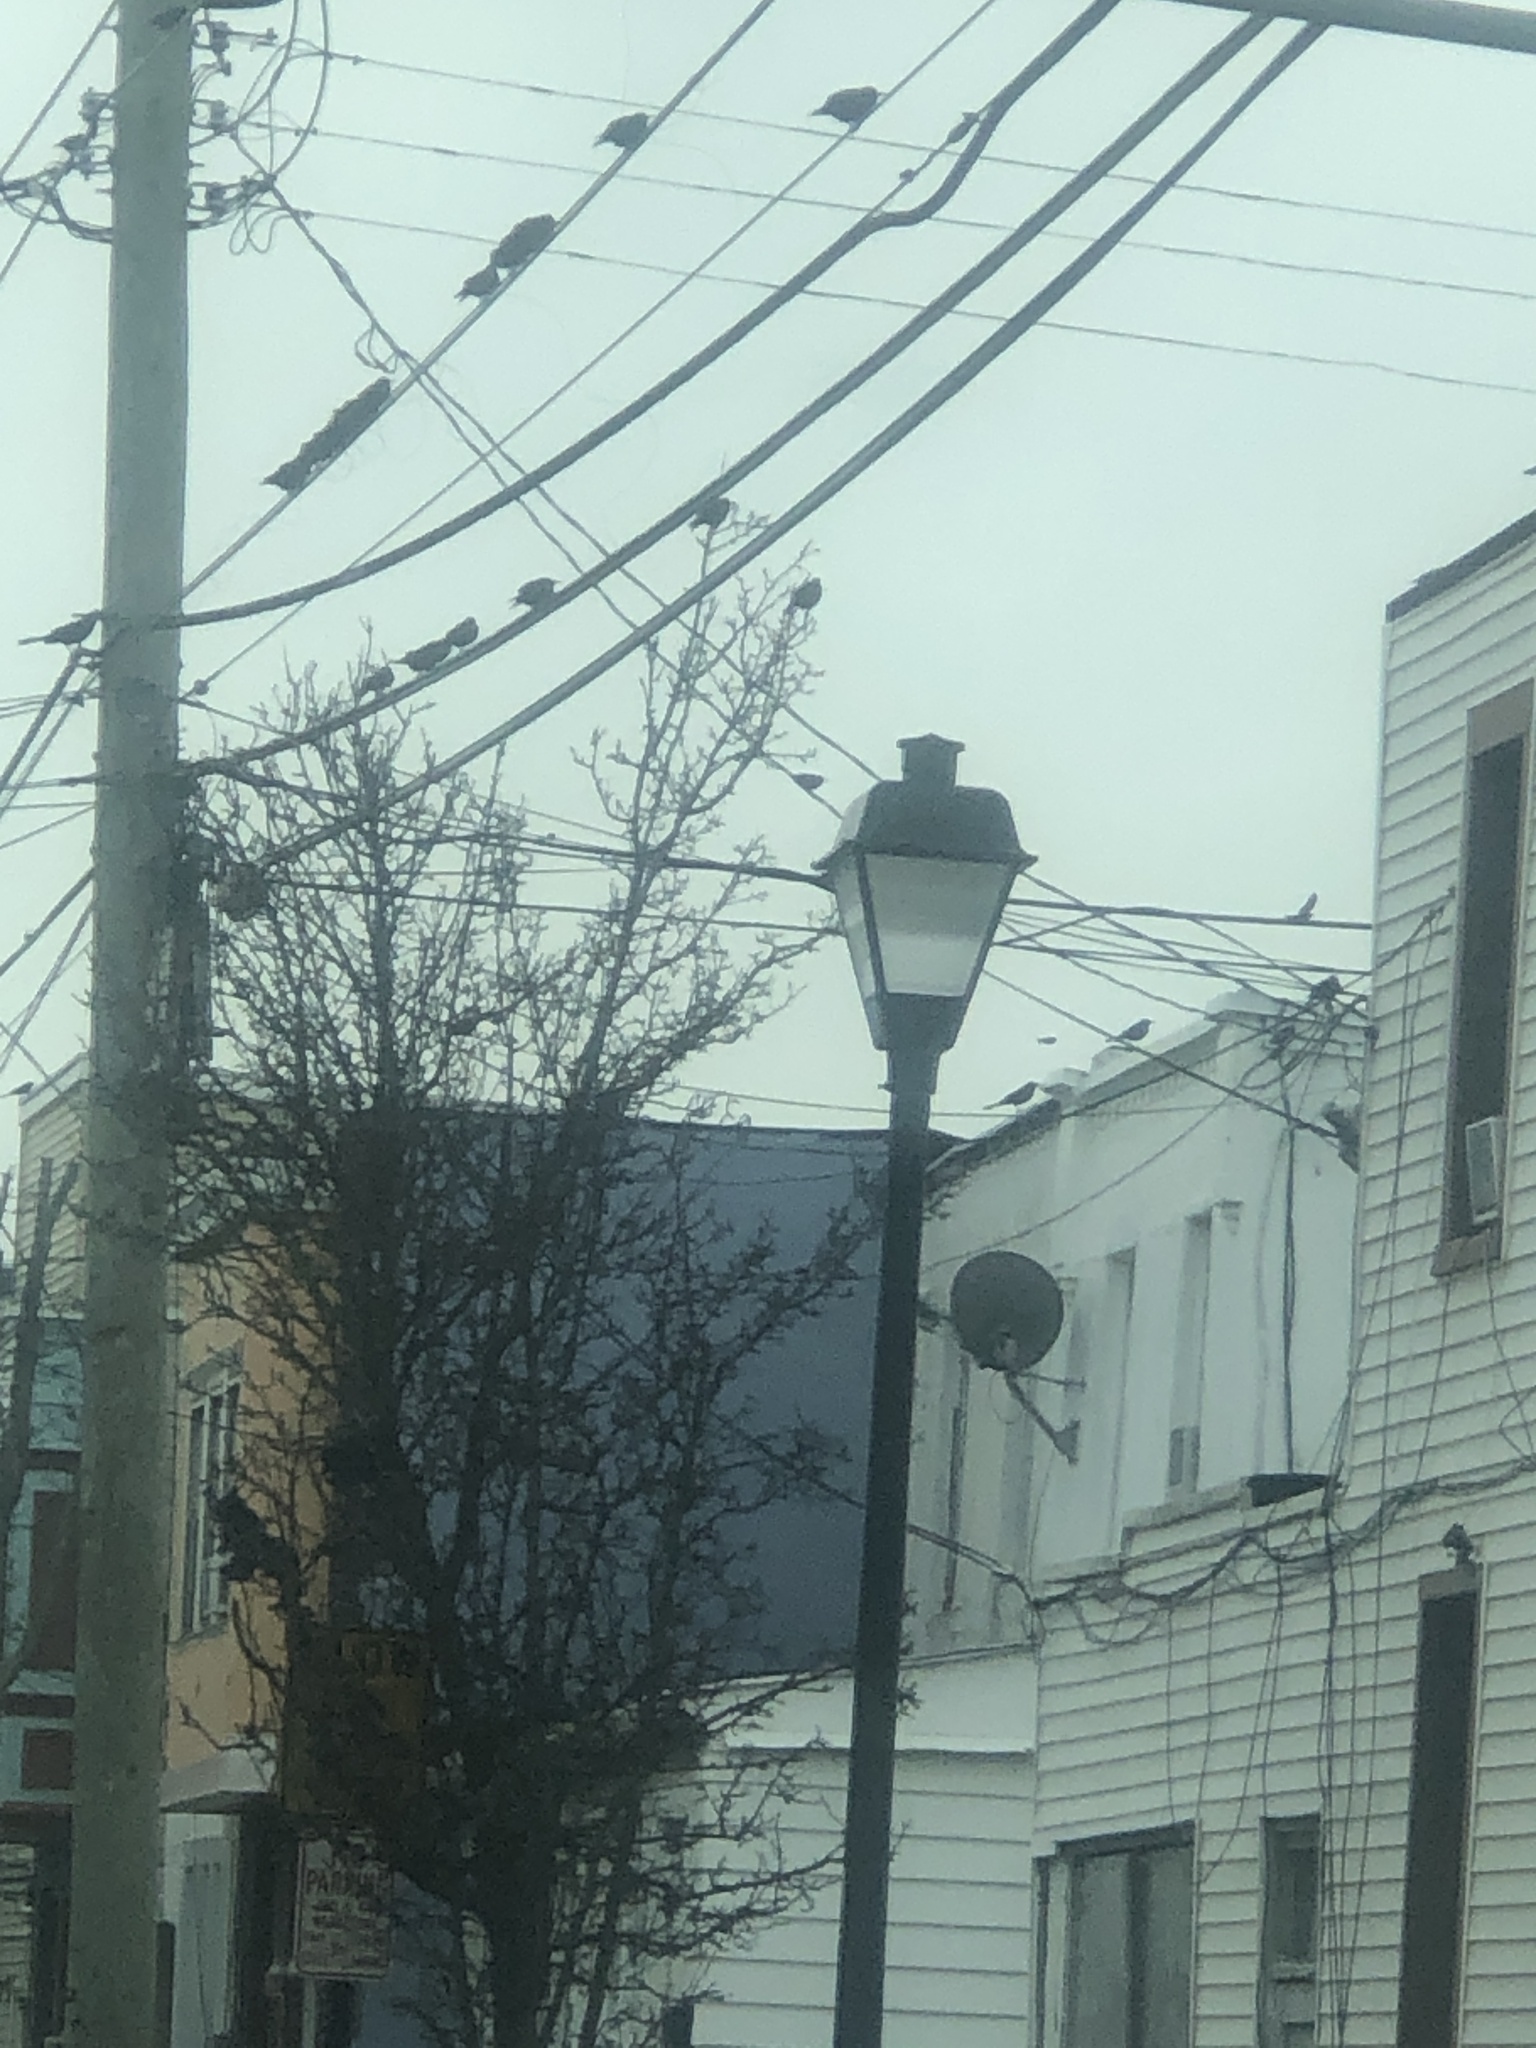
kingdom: Animalia
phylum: Chordata
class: Aves
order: Passeriformes
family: Sturnidae
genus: Sturnus
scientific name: Sturnus vulgaris
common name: Common starling
